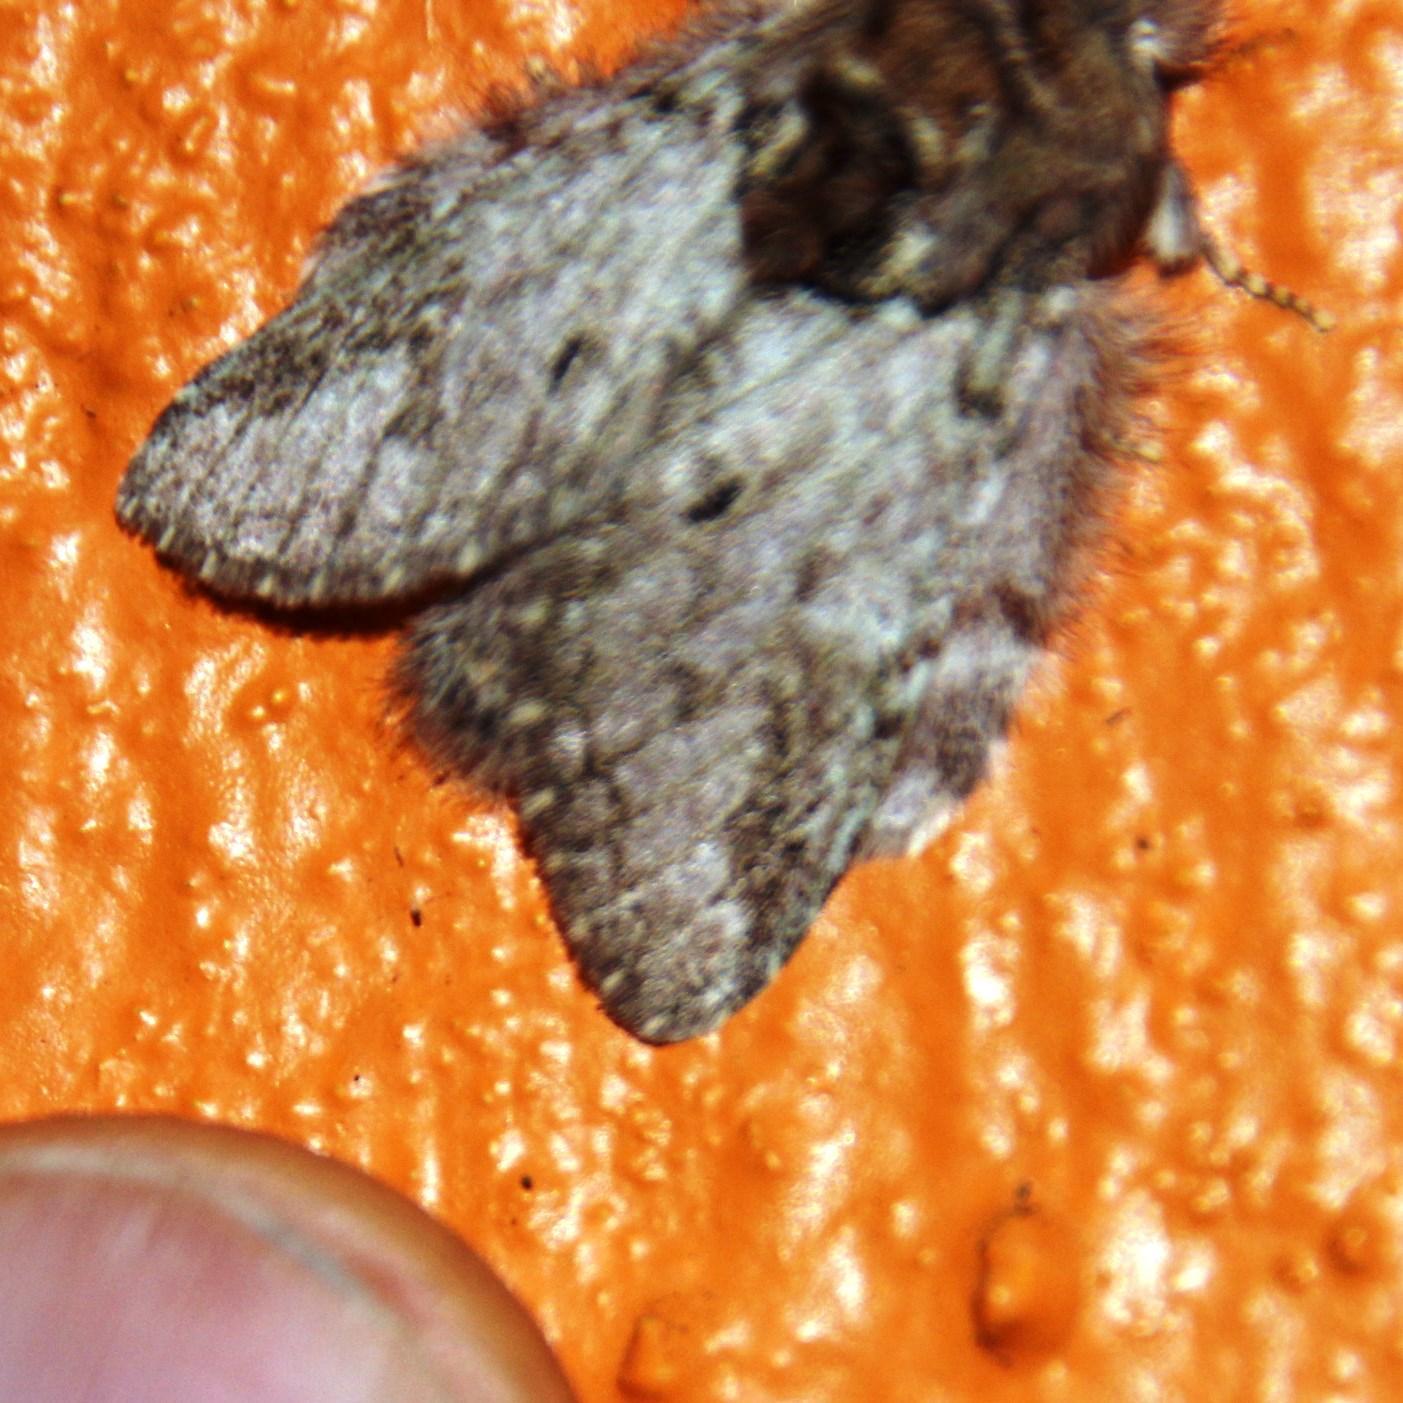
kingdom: Animalia
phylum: Arthropoda
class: Insecta
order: Lepidoptera
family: Notodontidae
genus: Desmeocraera
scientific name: Desmeocraera basalis
